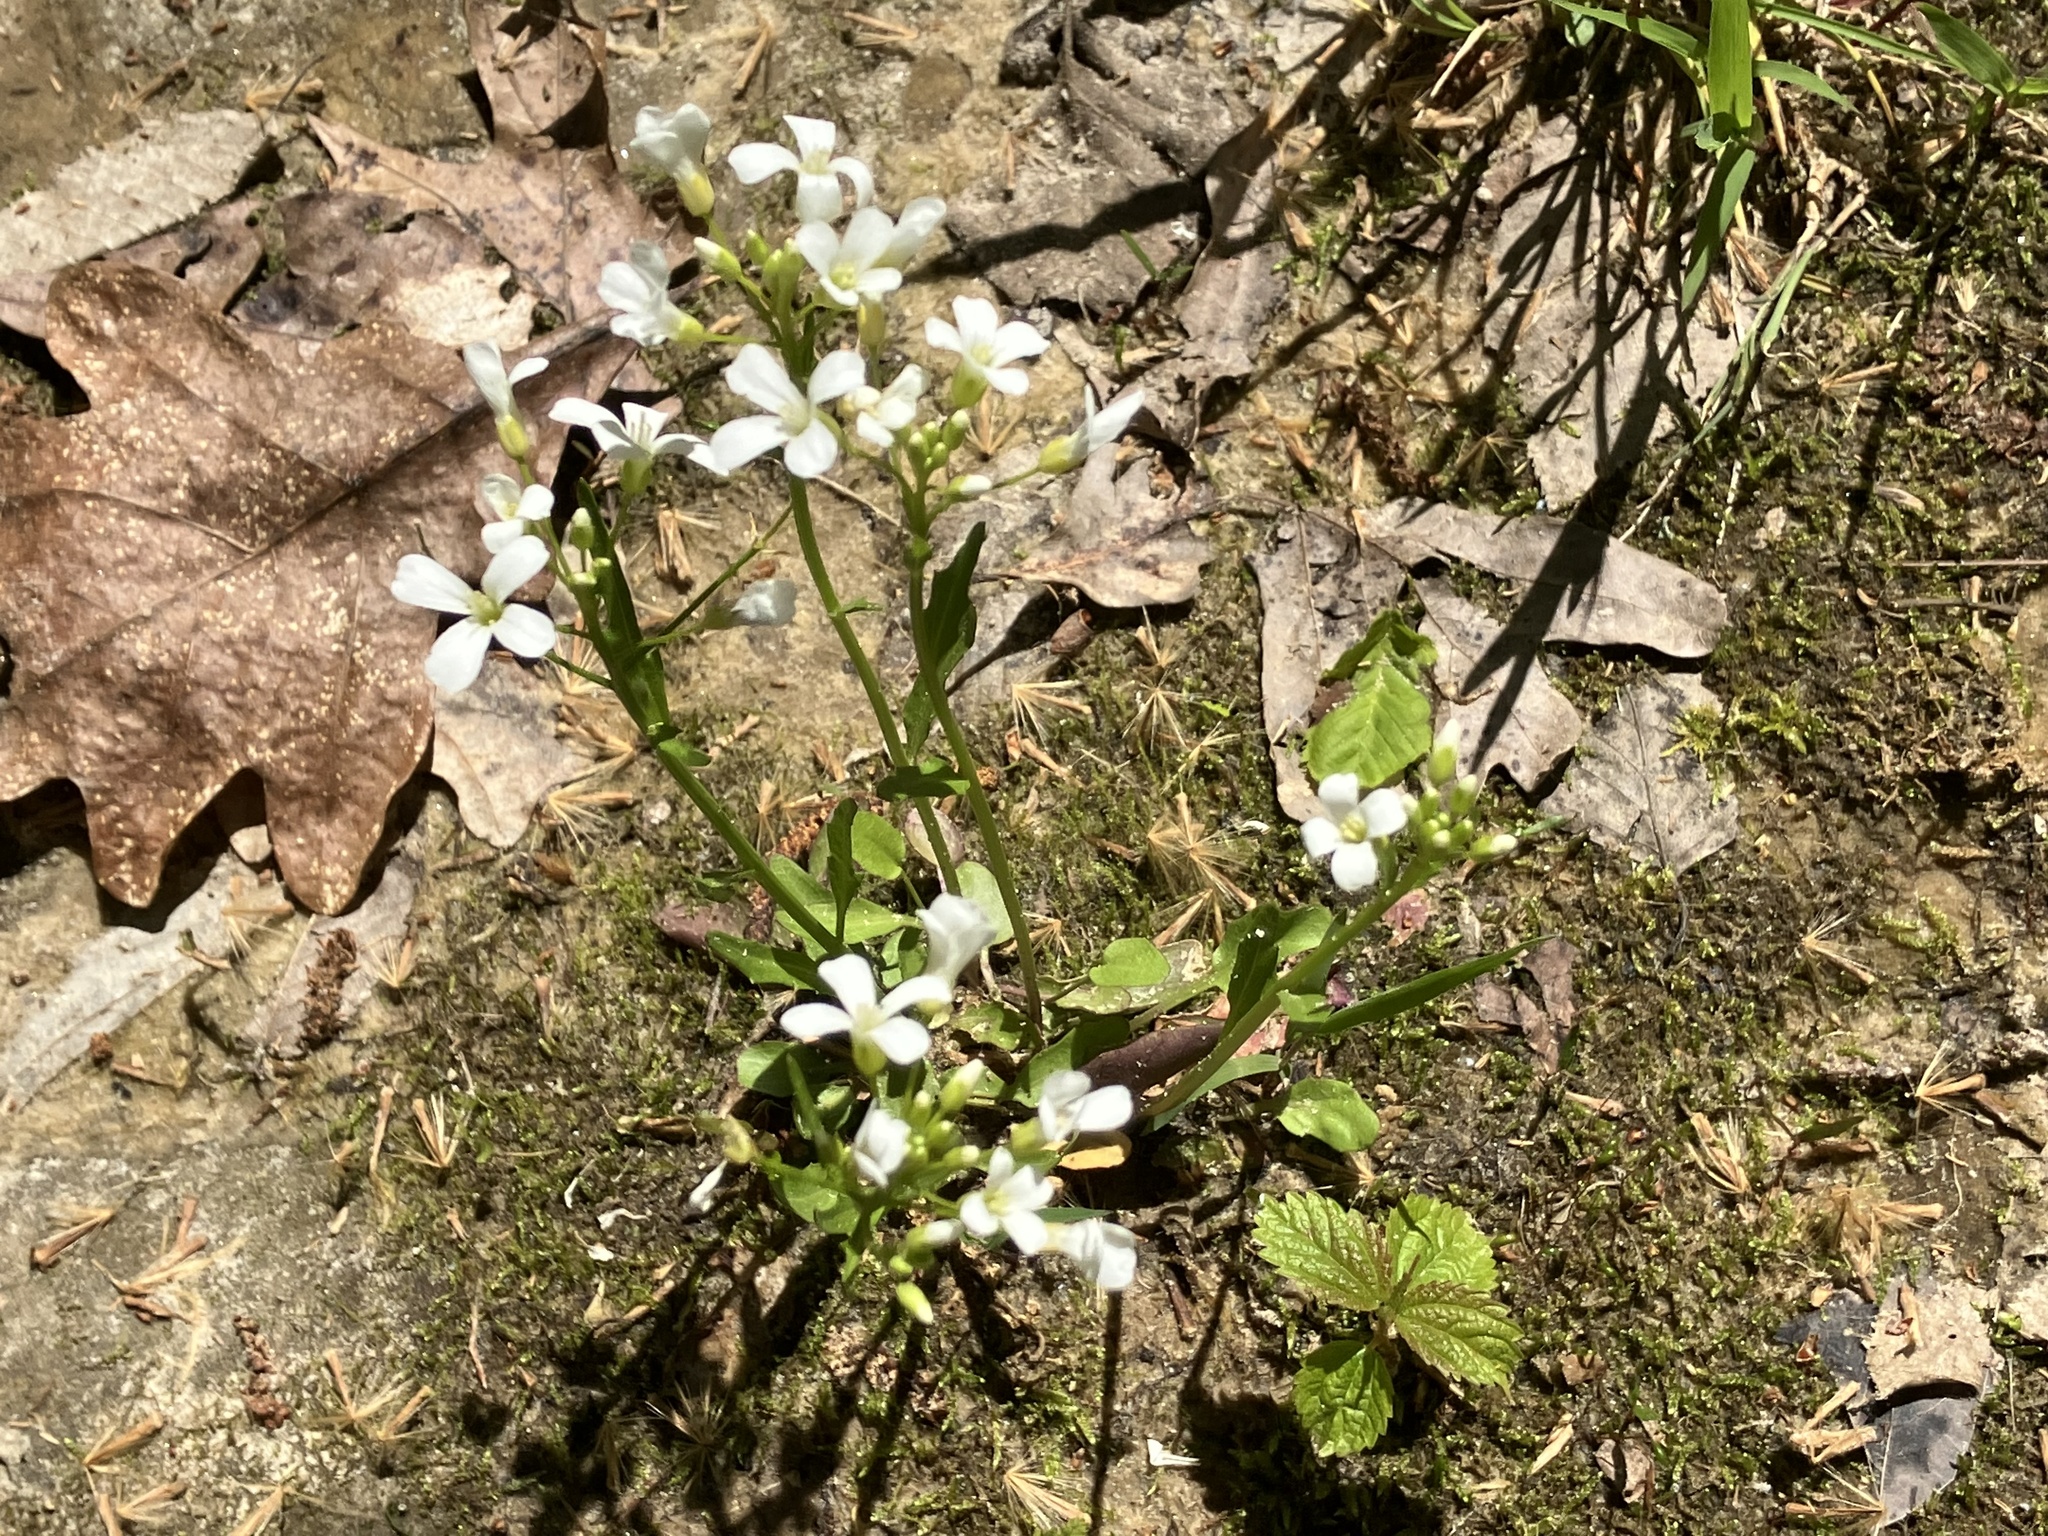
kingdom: Plantae
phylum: Tracheophyta
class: Magnoliopsida
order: Brassicales
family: Brassicaceae
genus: Cardamine
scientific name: Cardamine bulbosa
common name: Spring cress
